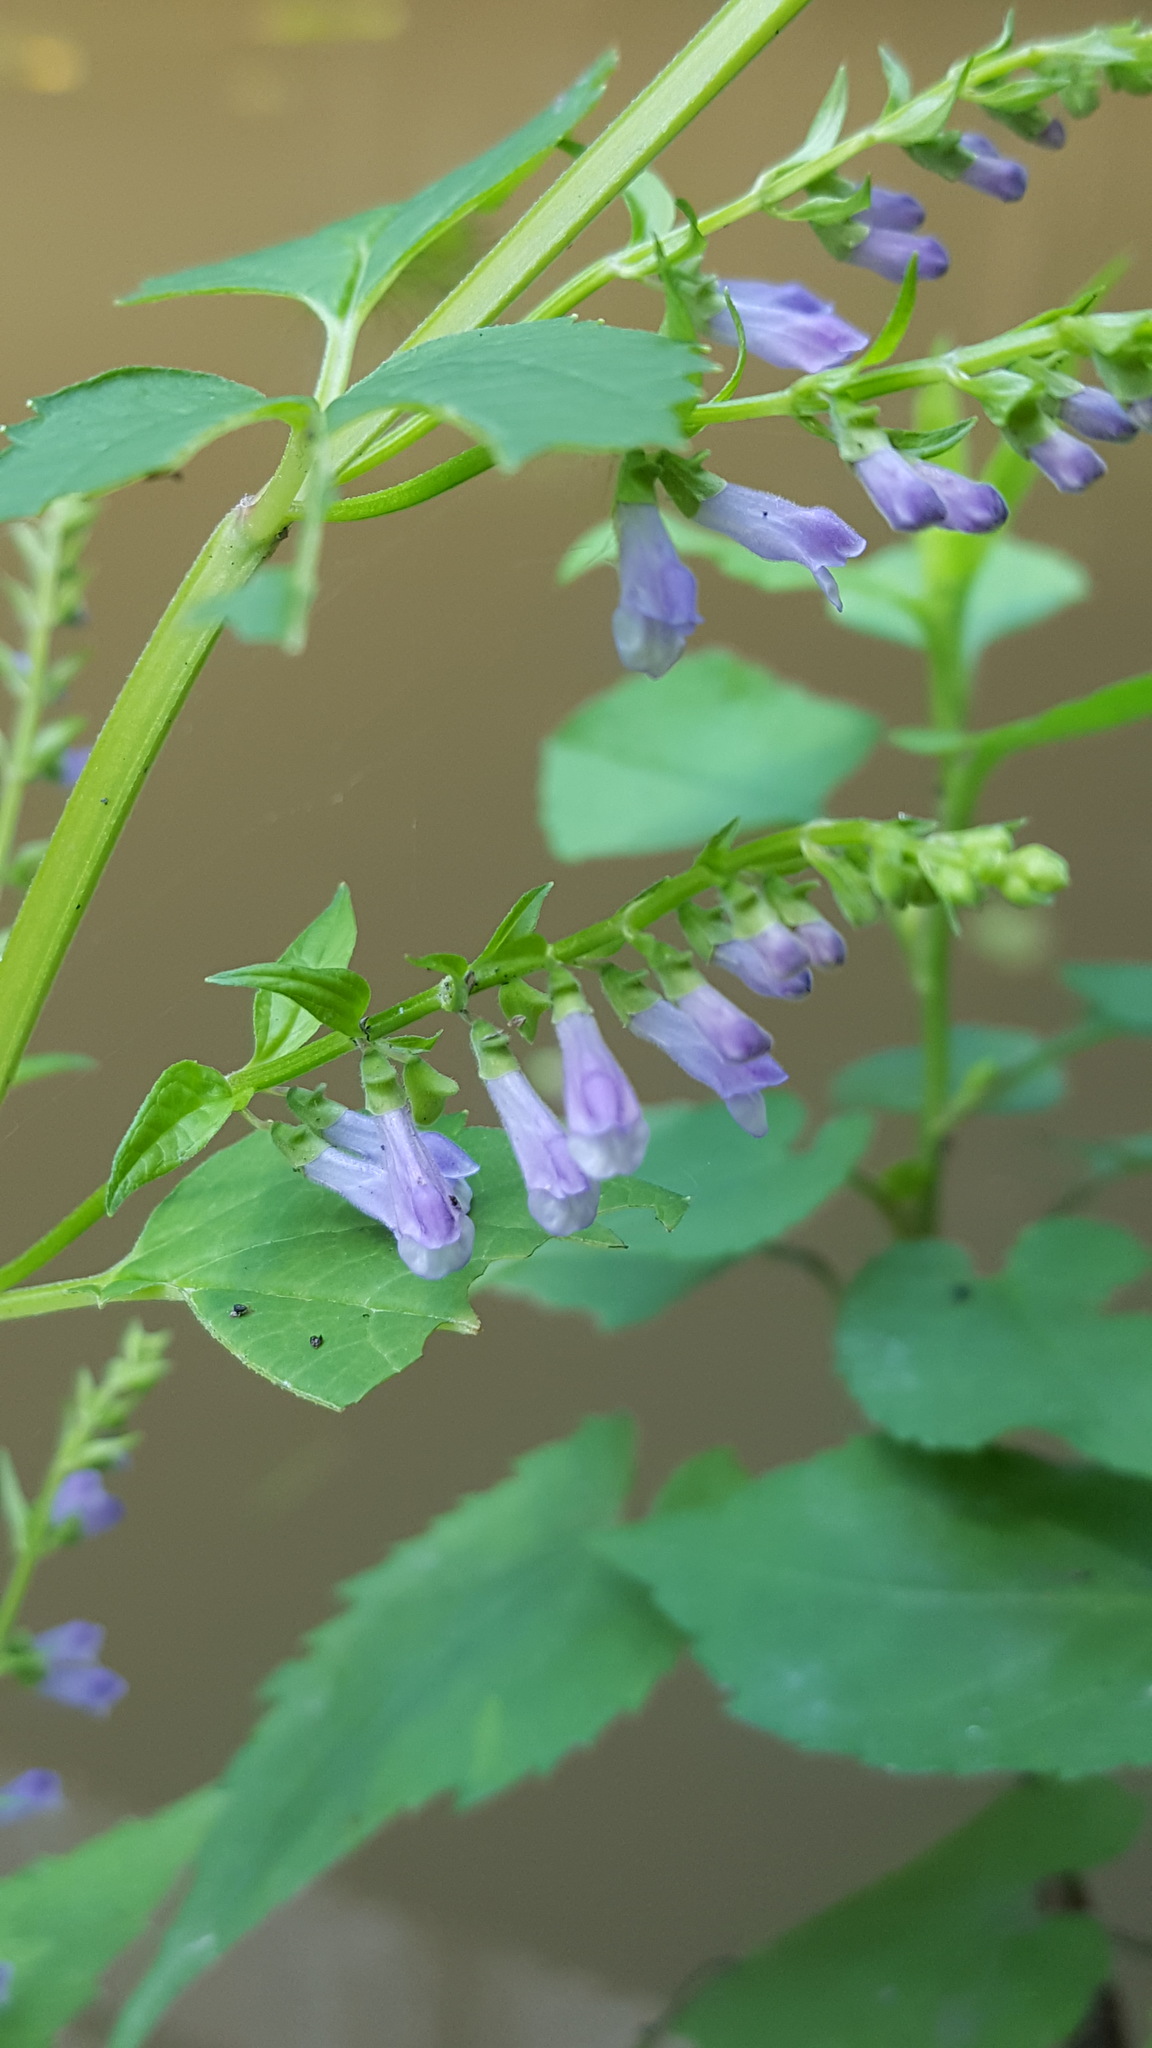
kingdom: Plantae
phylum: Tracheophyta
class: Magnoliopsida
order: Lamiales
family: Lamiaceae
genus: Scutellaria
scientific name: Scutellaria lateriflora
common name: Blue skullcap
